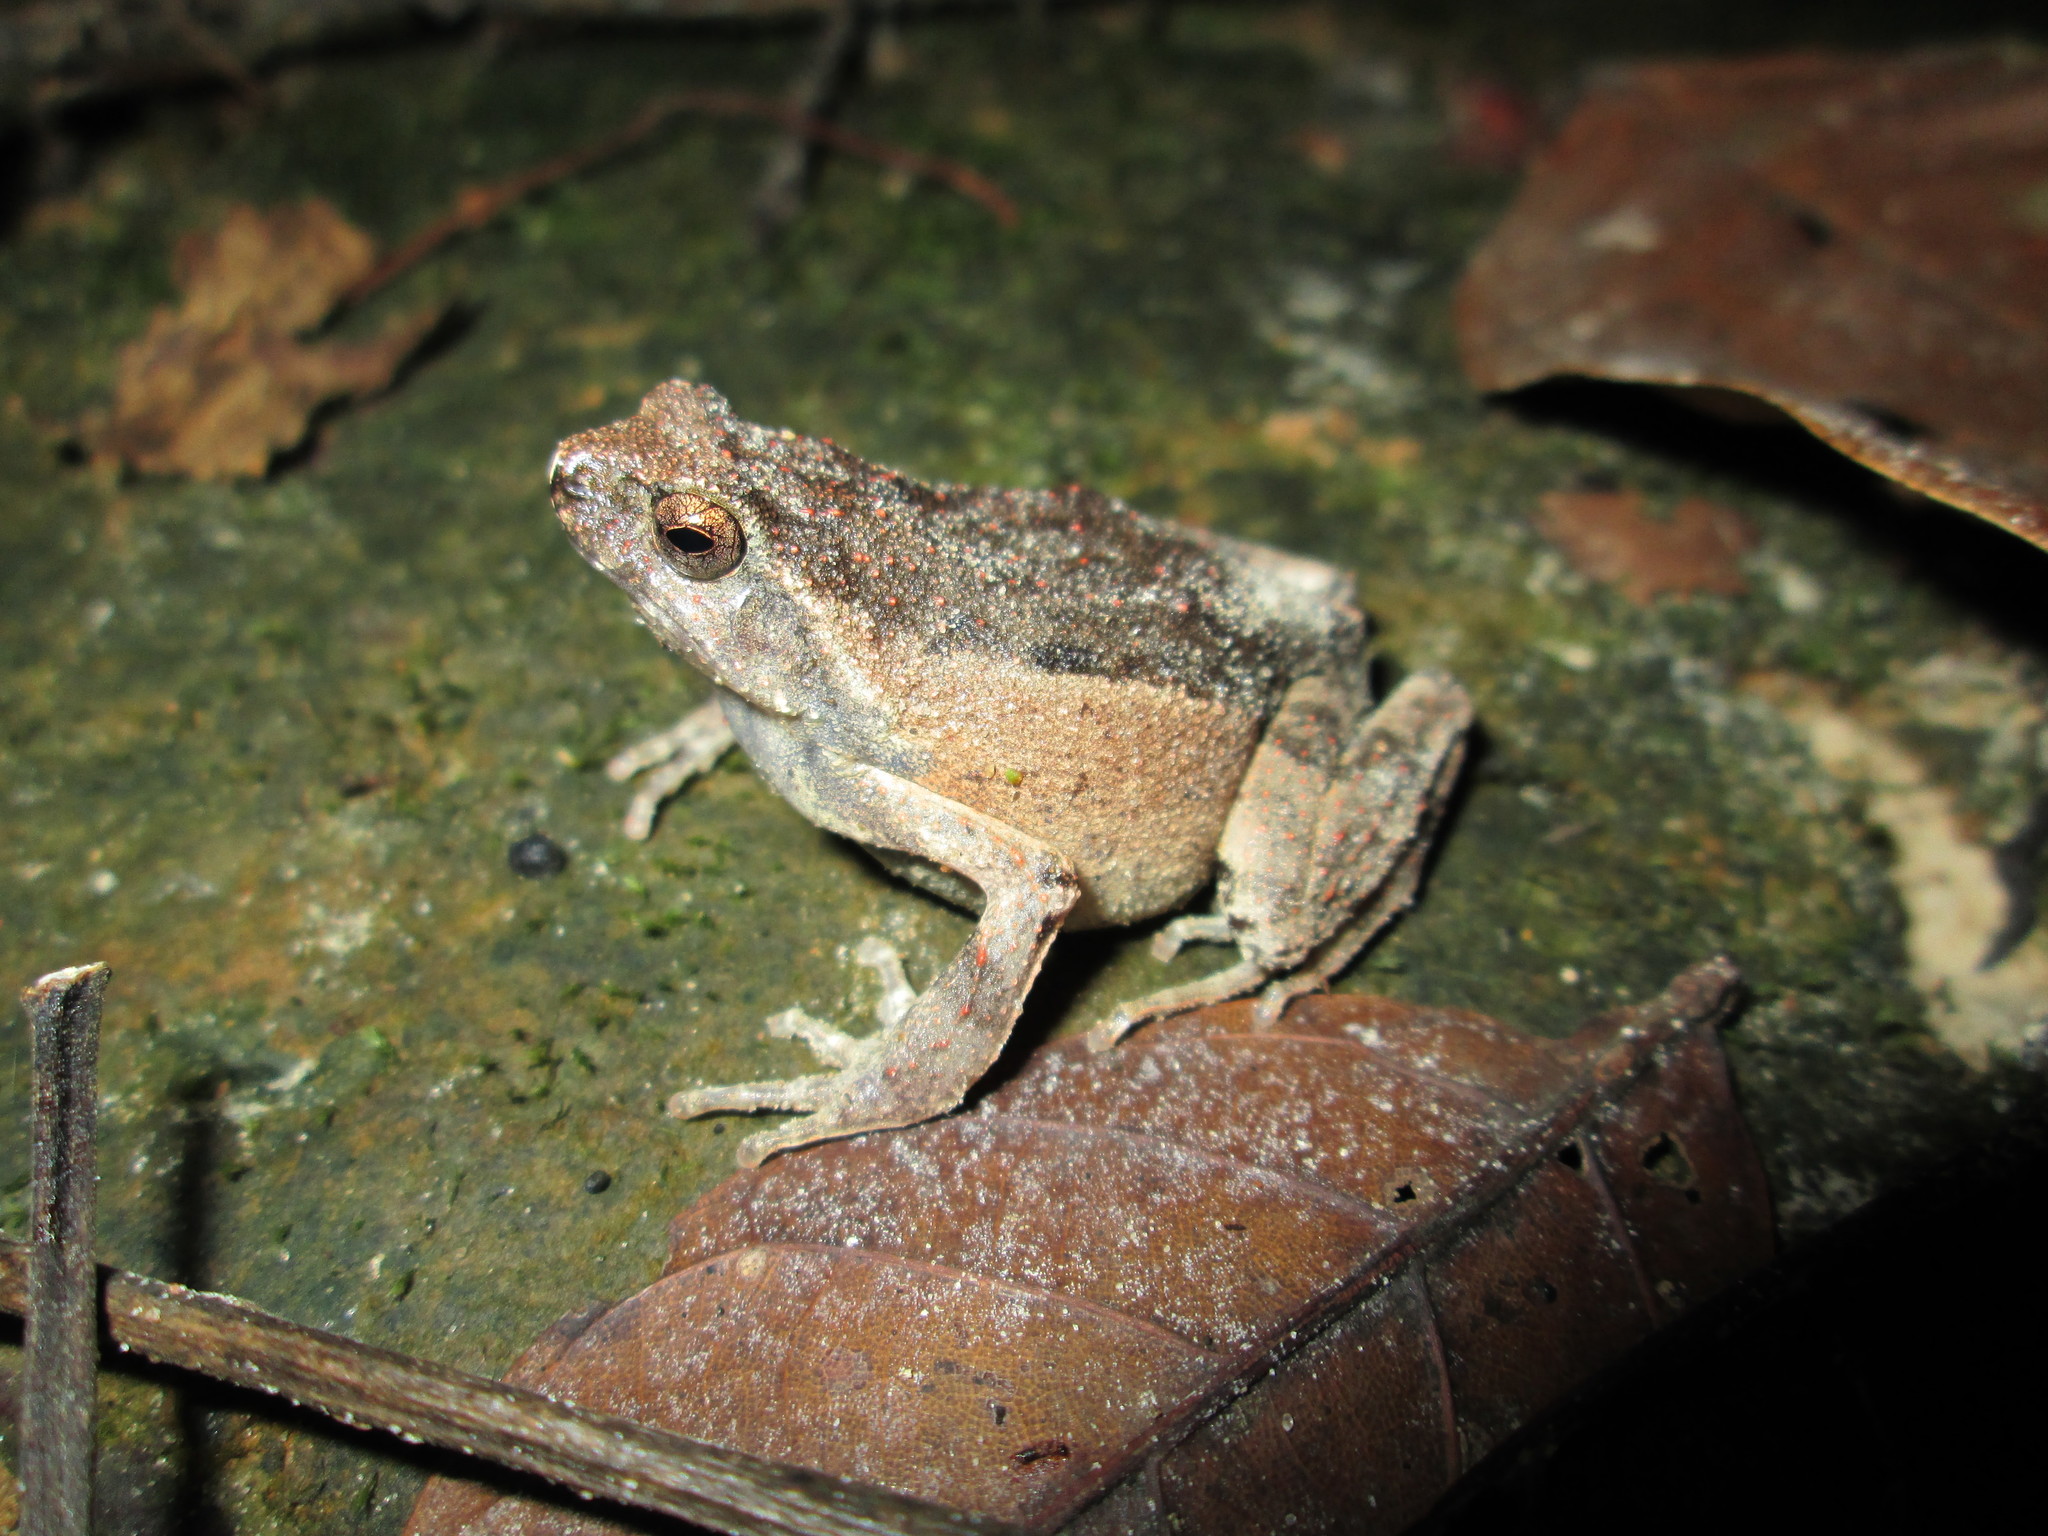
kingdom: Animalia
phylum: Chordata
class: Amphibia
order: Anura
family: Leptodactylidae
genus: Engystomops
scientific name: Engystomops petersi
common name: Peters’ dwarf frog
